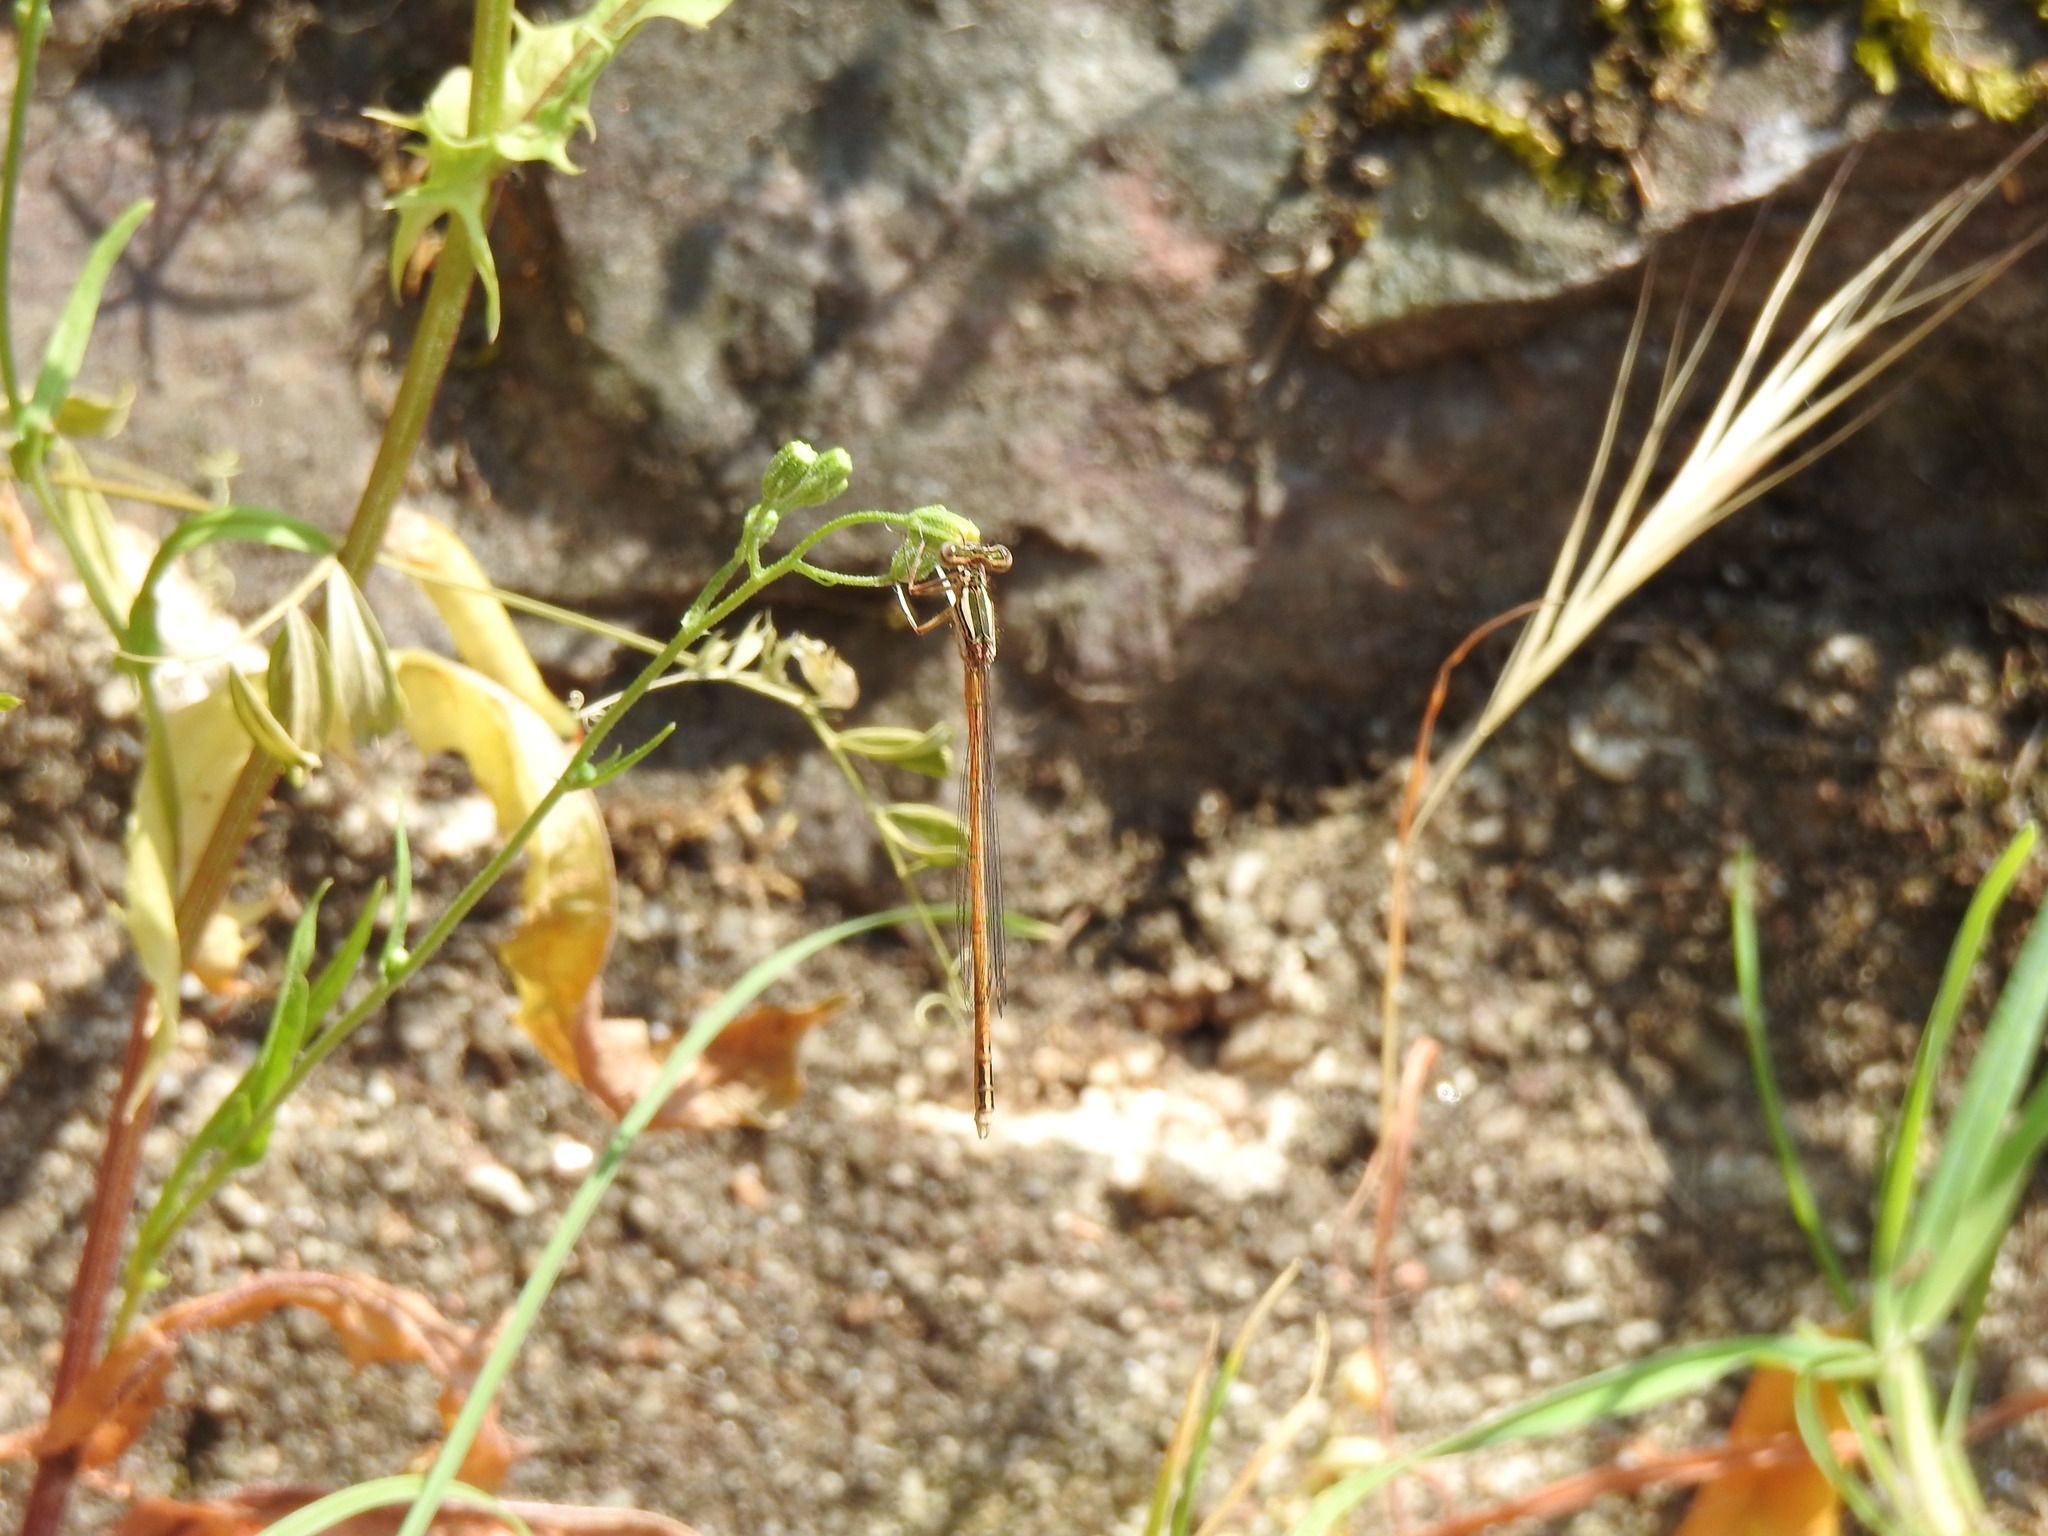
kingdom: Animalia
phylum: Arthropoda
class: Insecta
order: Odonata
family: Platycnemididae
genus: Platycnemis
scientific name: Platycnemis acutipennis
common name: Orange featherleg
